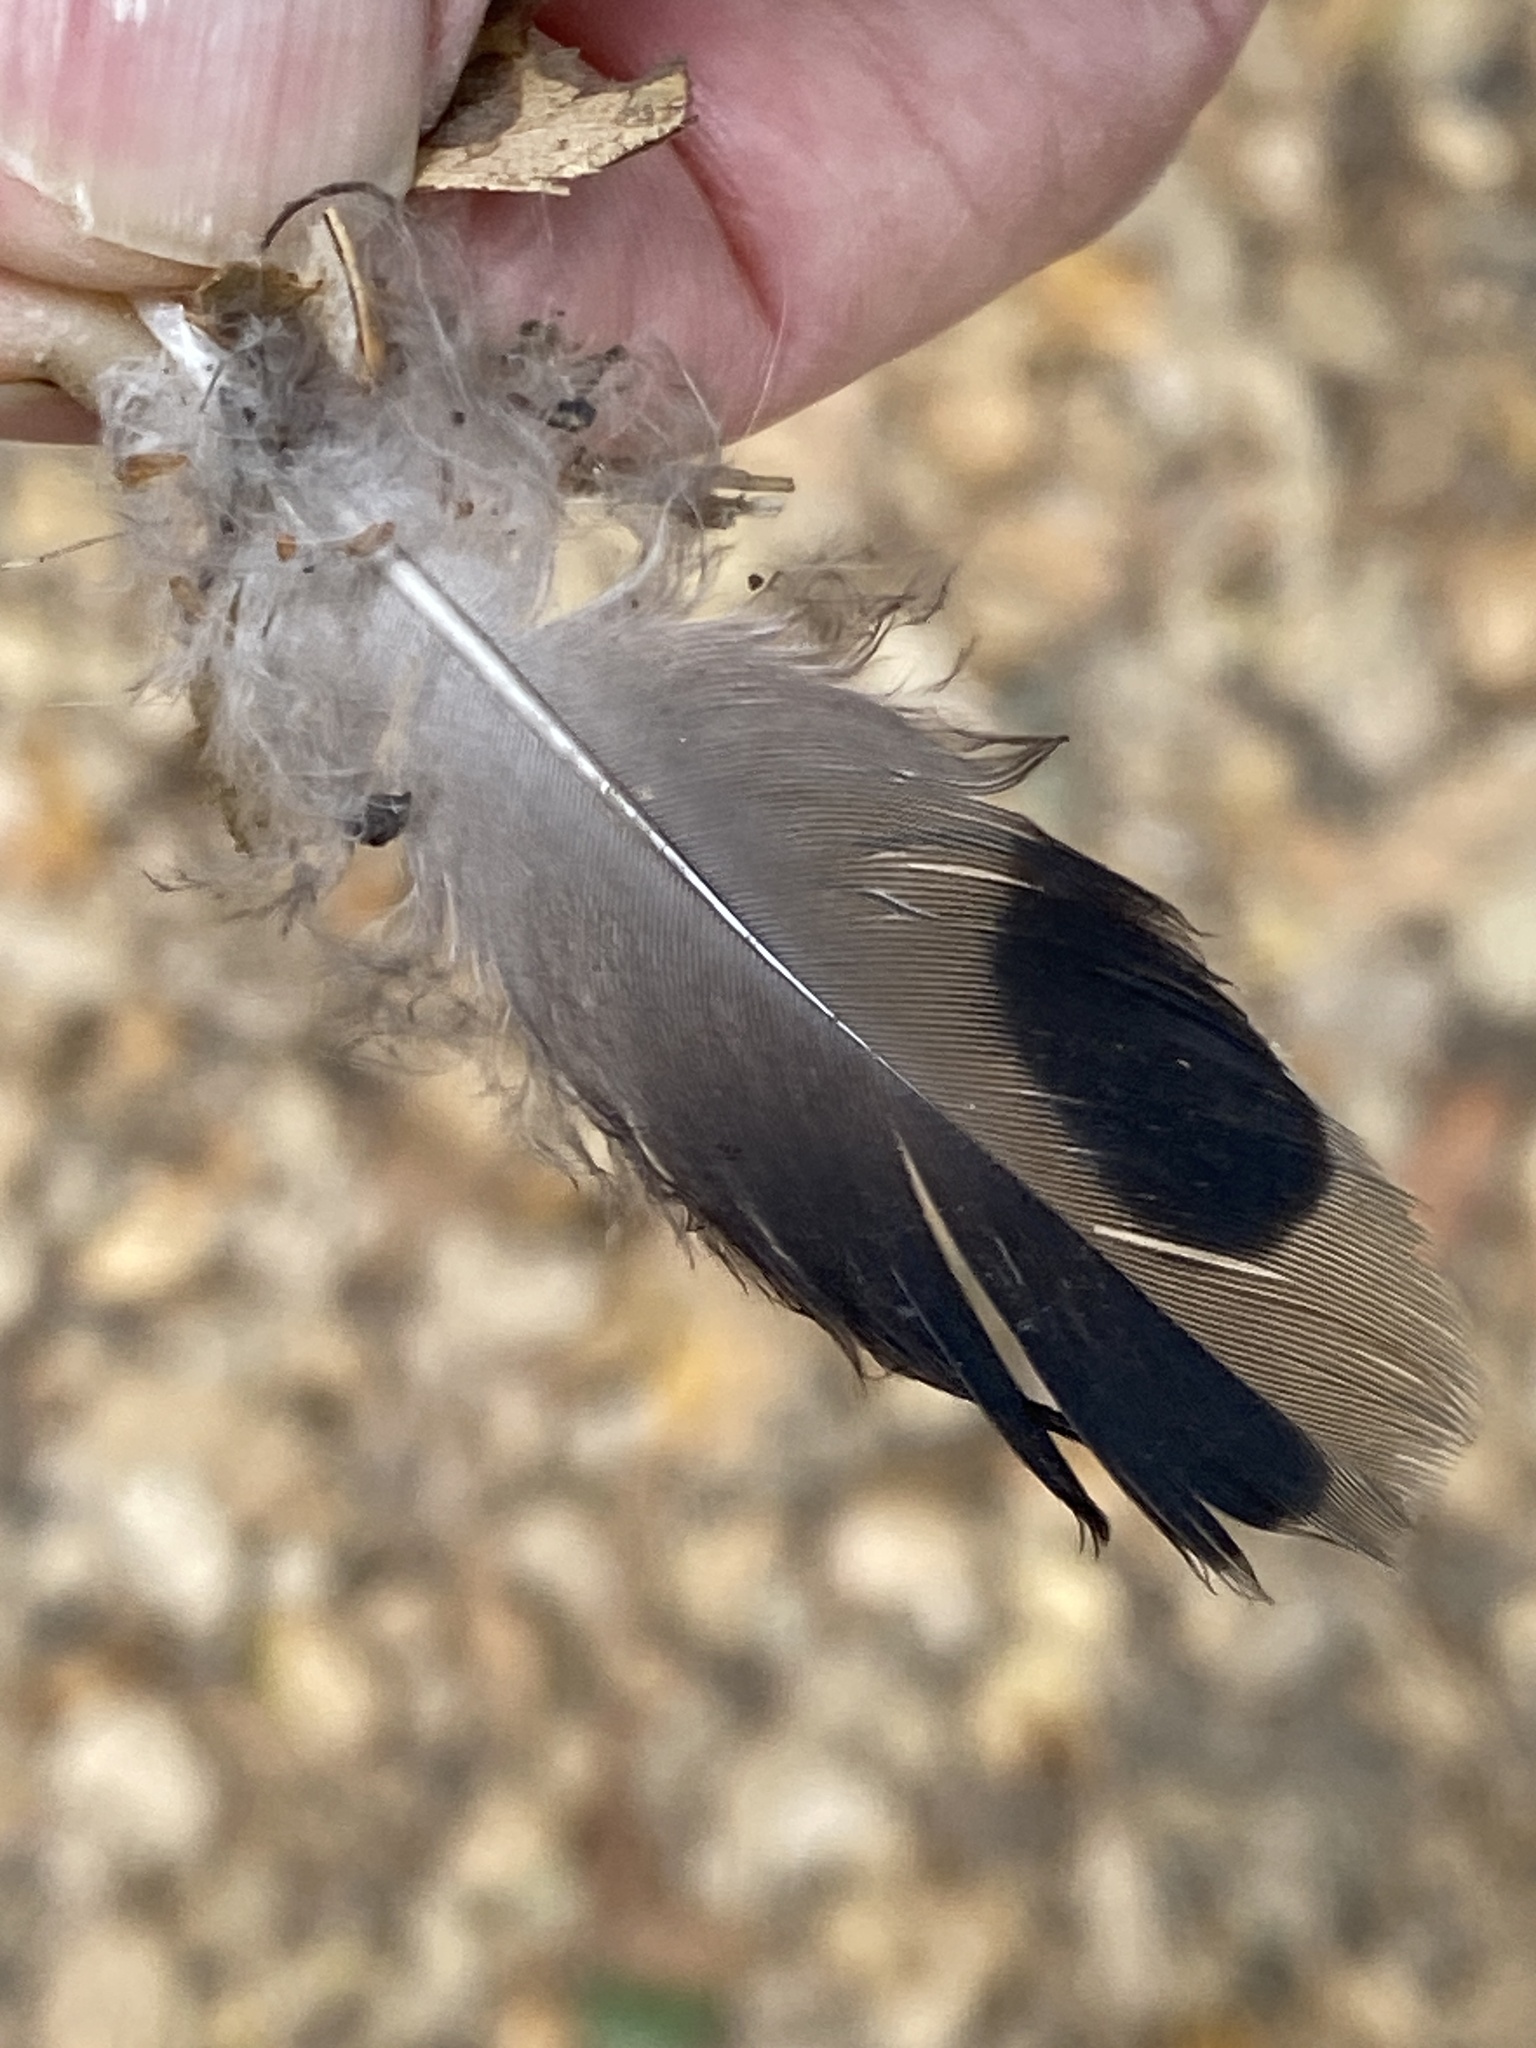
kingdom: Animalia
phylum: Chordata
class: Aves
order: Columbiformes
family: Columbidae
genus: Zenaida
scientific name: Zenaida macroura
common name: Mourning dove
